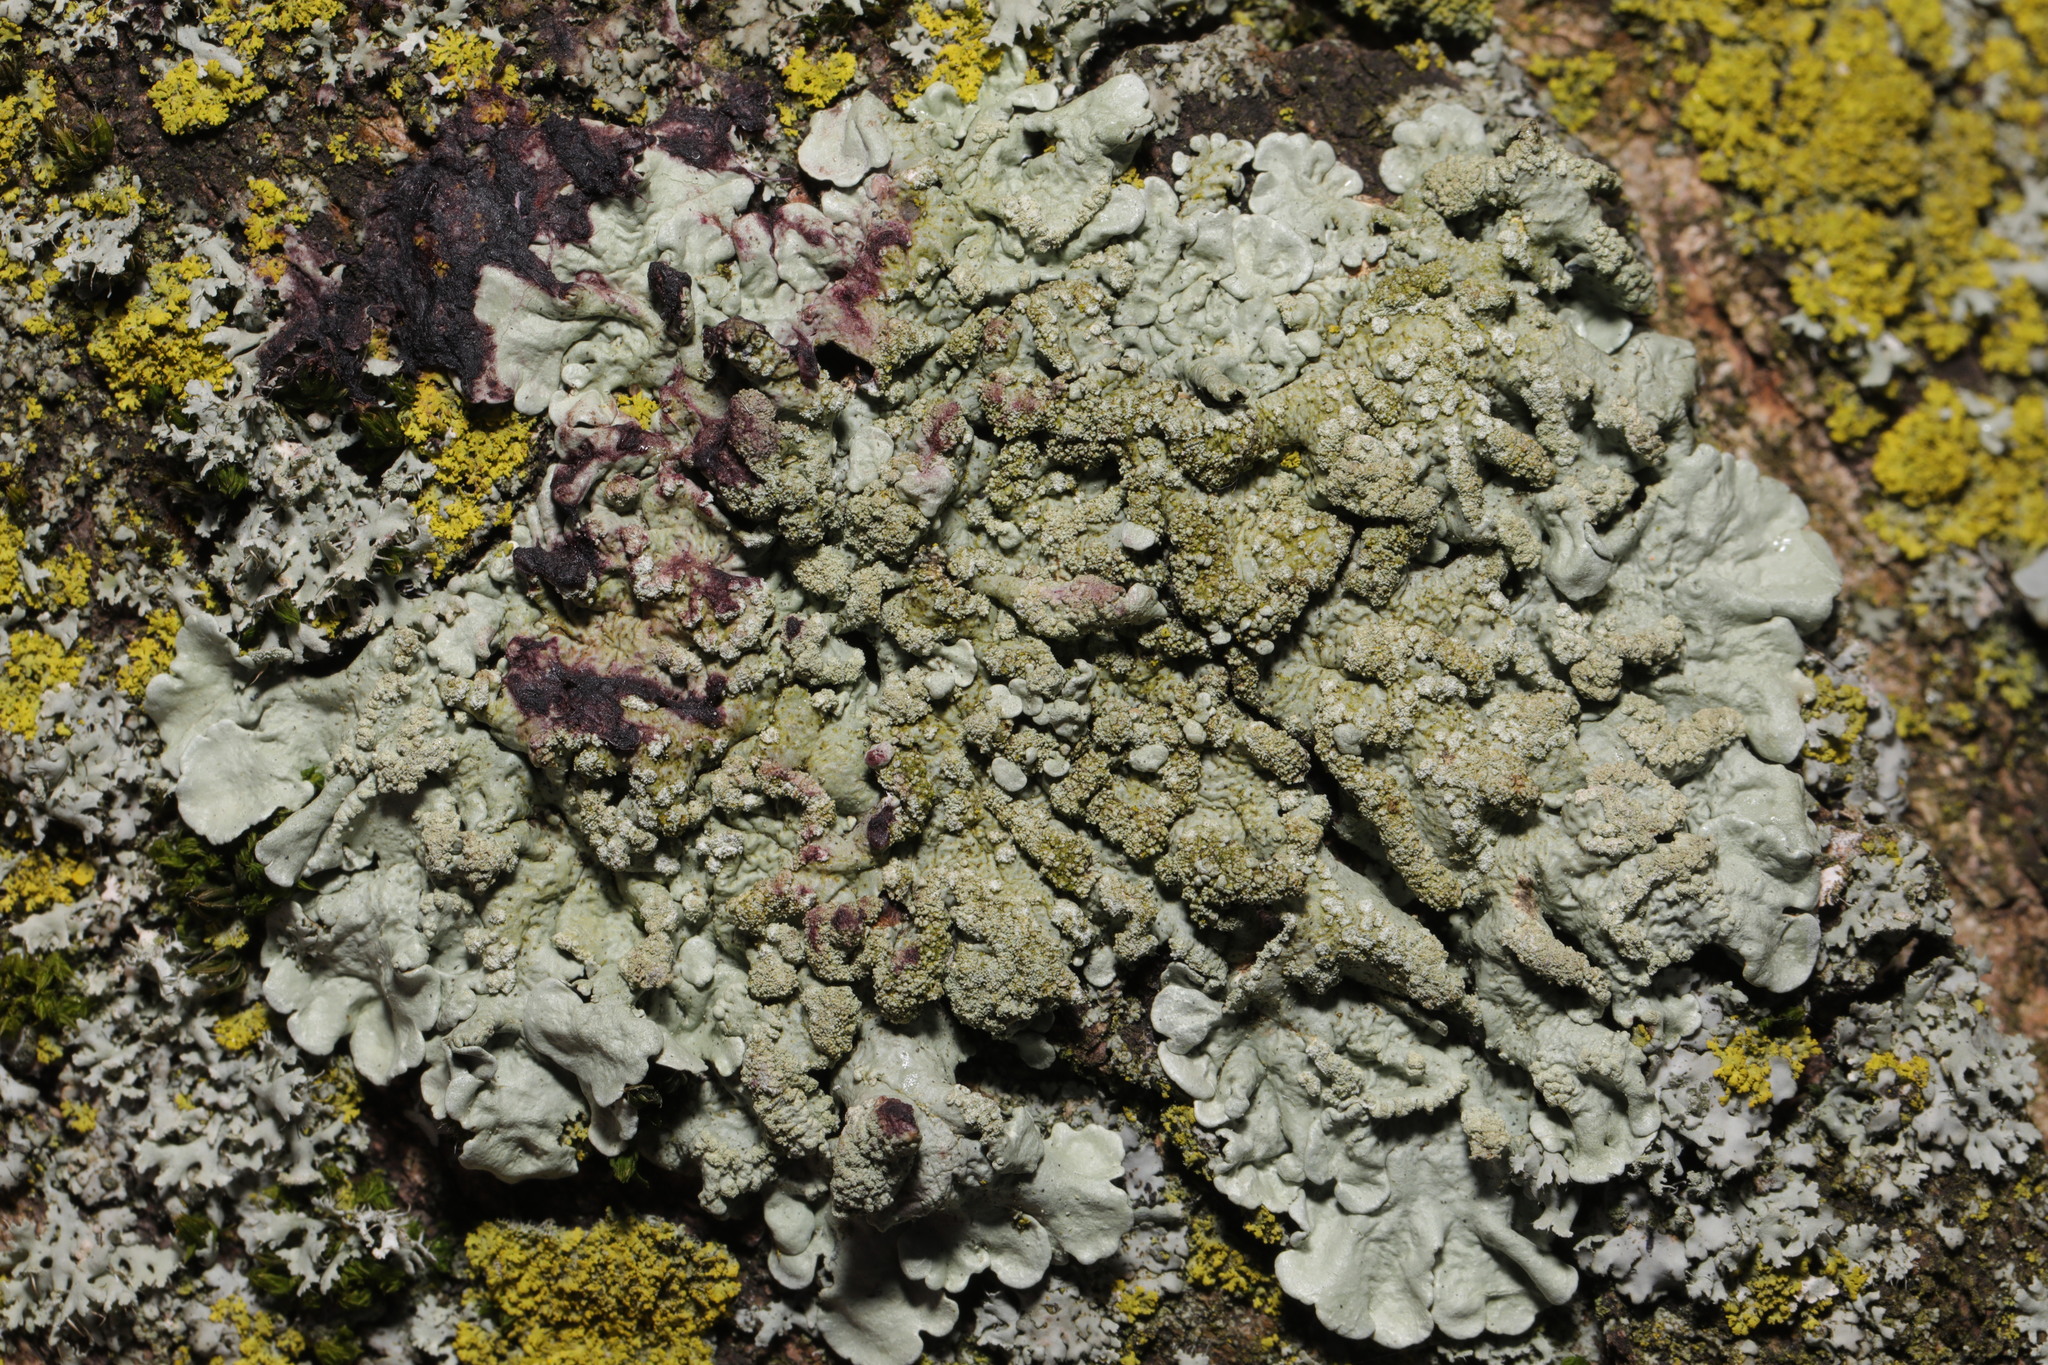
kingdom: Fungi
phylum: Ascomycota
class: Lecanoromycetes
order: Lecanorales
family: Parmeliaceae
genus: Flavoparmelia
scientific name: Flavoparmelia caperata
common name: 40-mile per hour lichen
